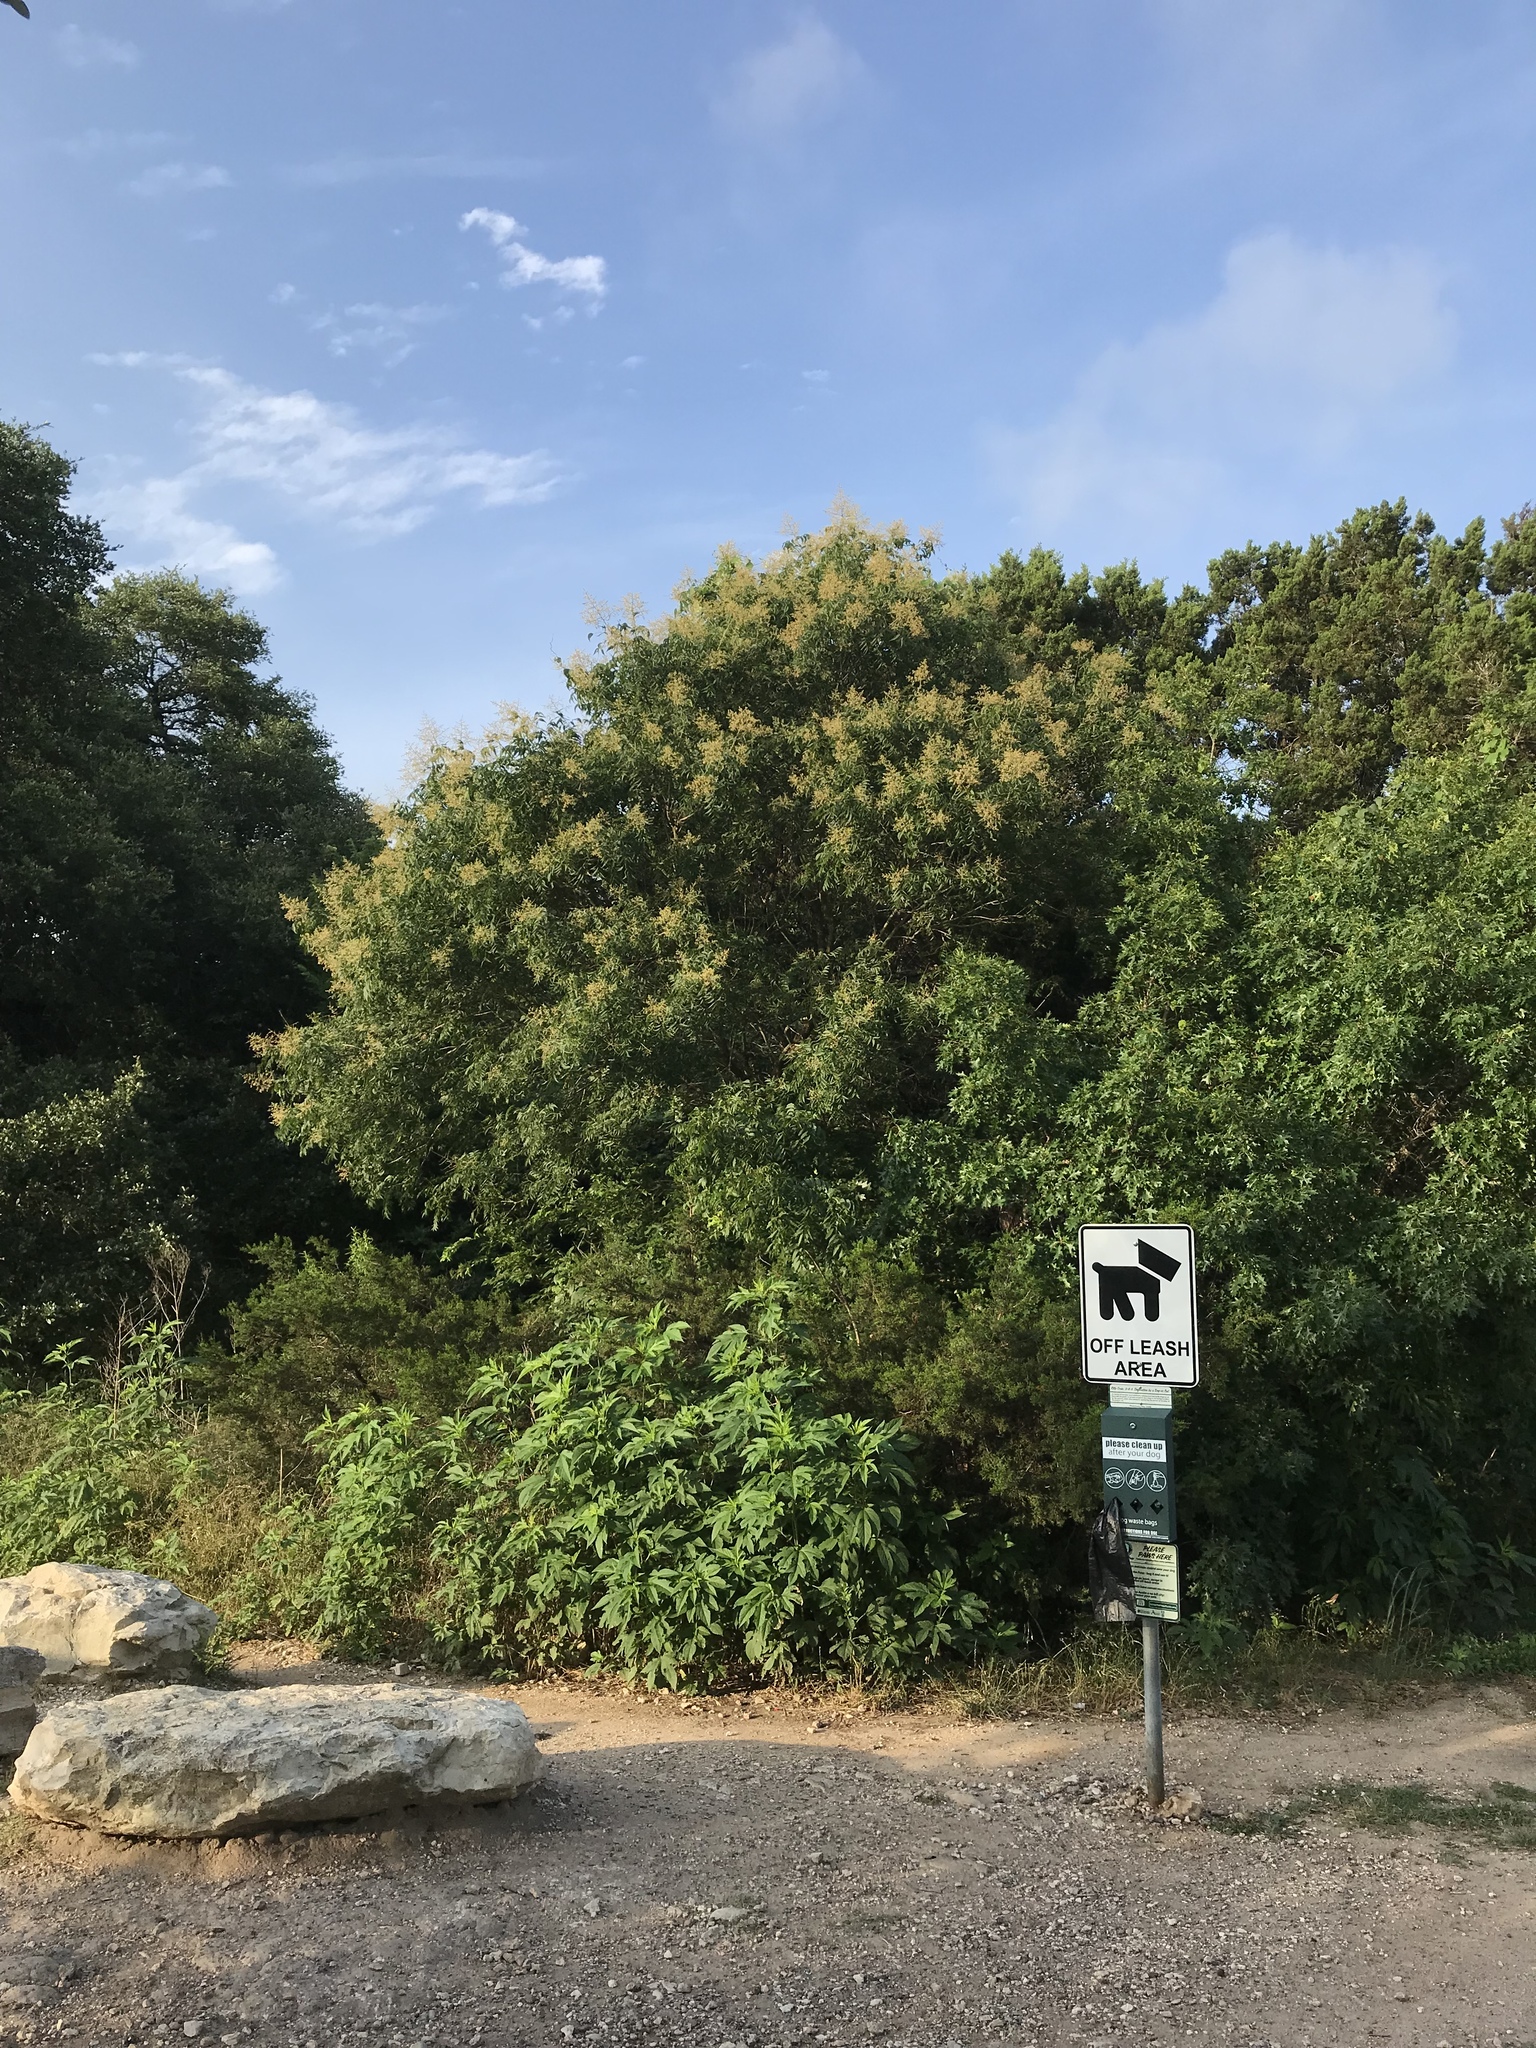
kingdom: Plantae
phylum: Tracheophyta
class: Magnoliopsida
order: Sapindales
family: Sapindaceae
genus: Sapindus
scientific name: Sapindus drummondii
